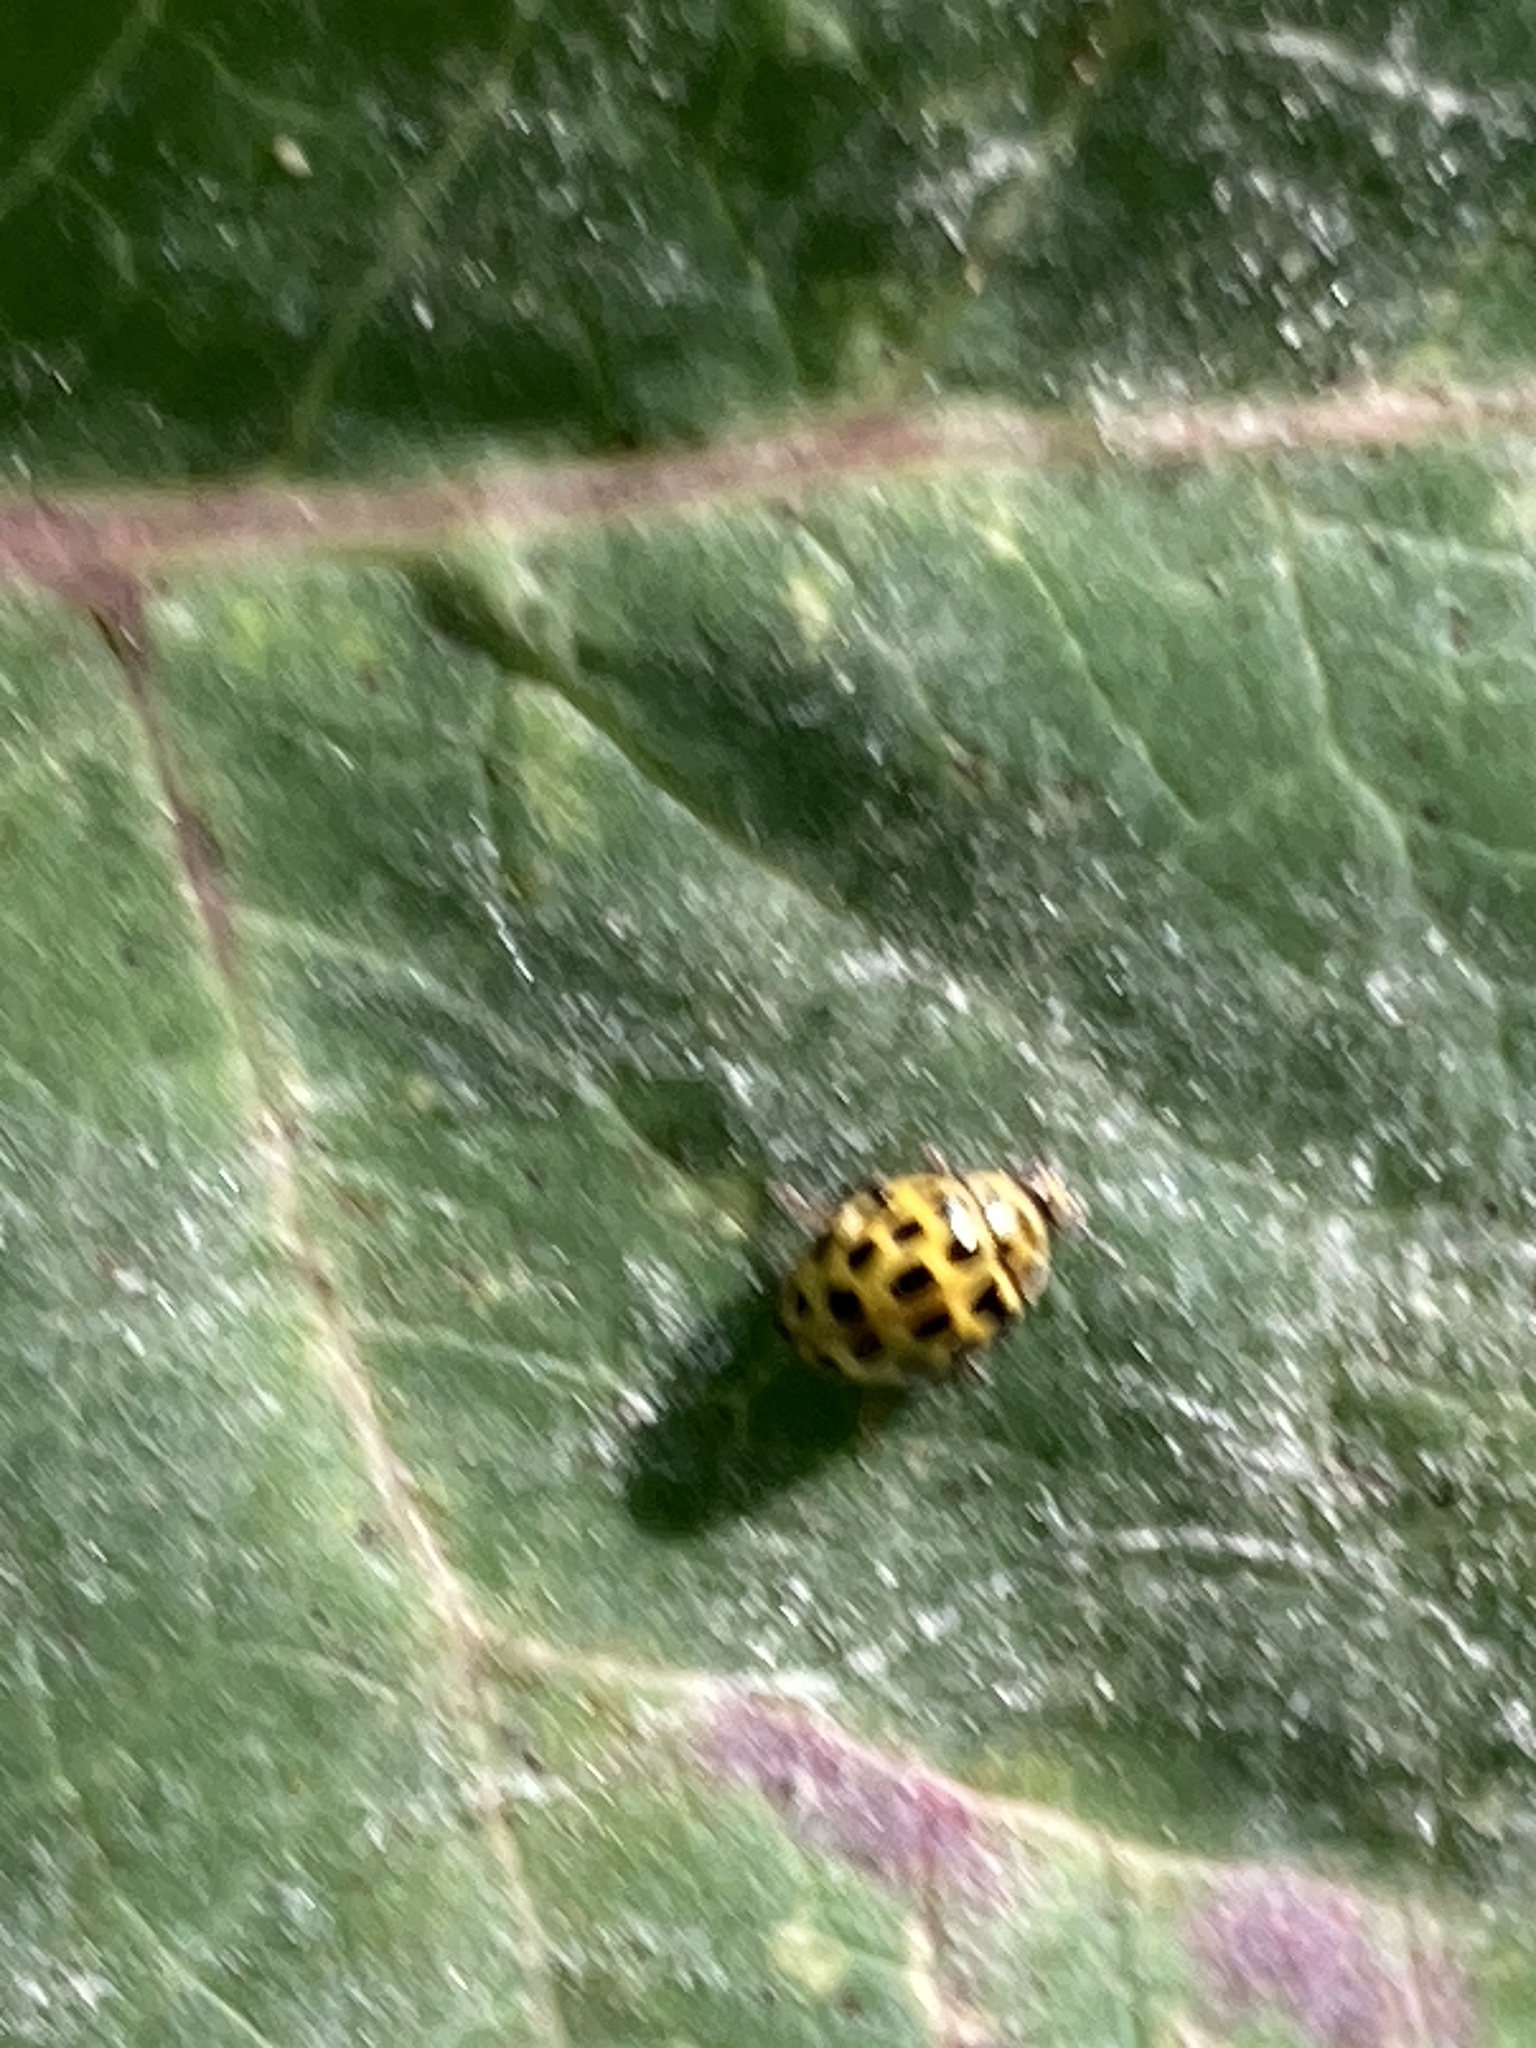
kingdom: Animalia
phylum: Arthropoda
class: Insecta
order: Coleoptera
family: Coccinellidae
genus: Psyllobora
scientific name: Psyllobora vigintiduopunctata
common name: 22-spot ladybird
